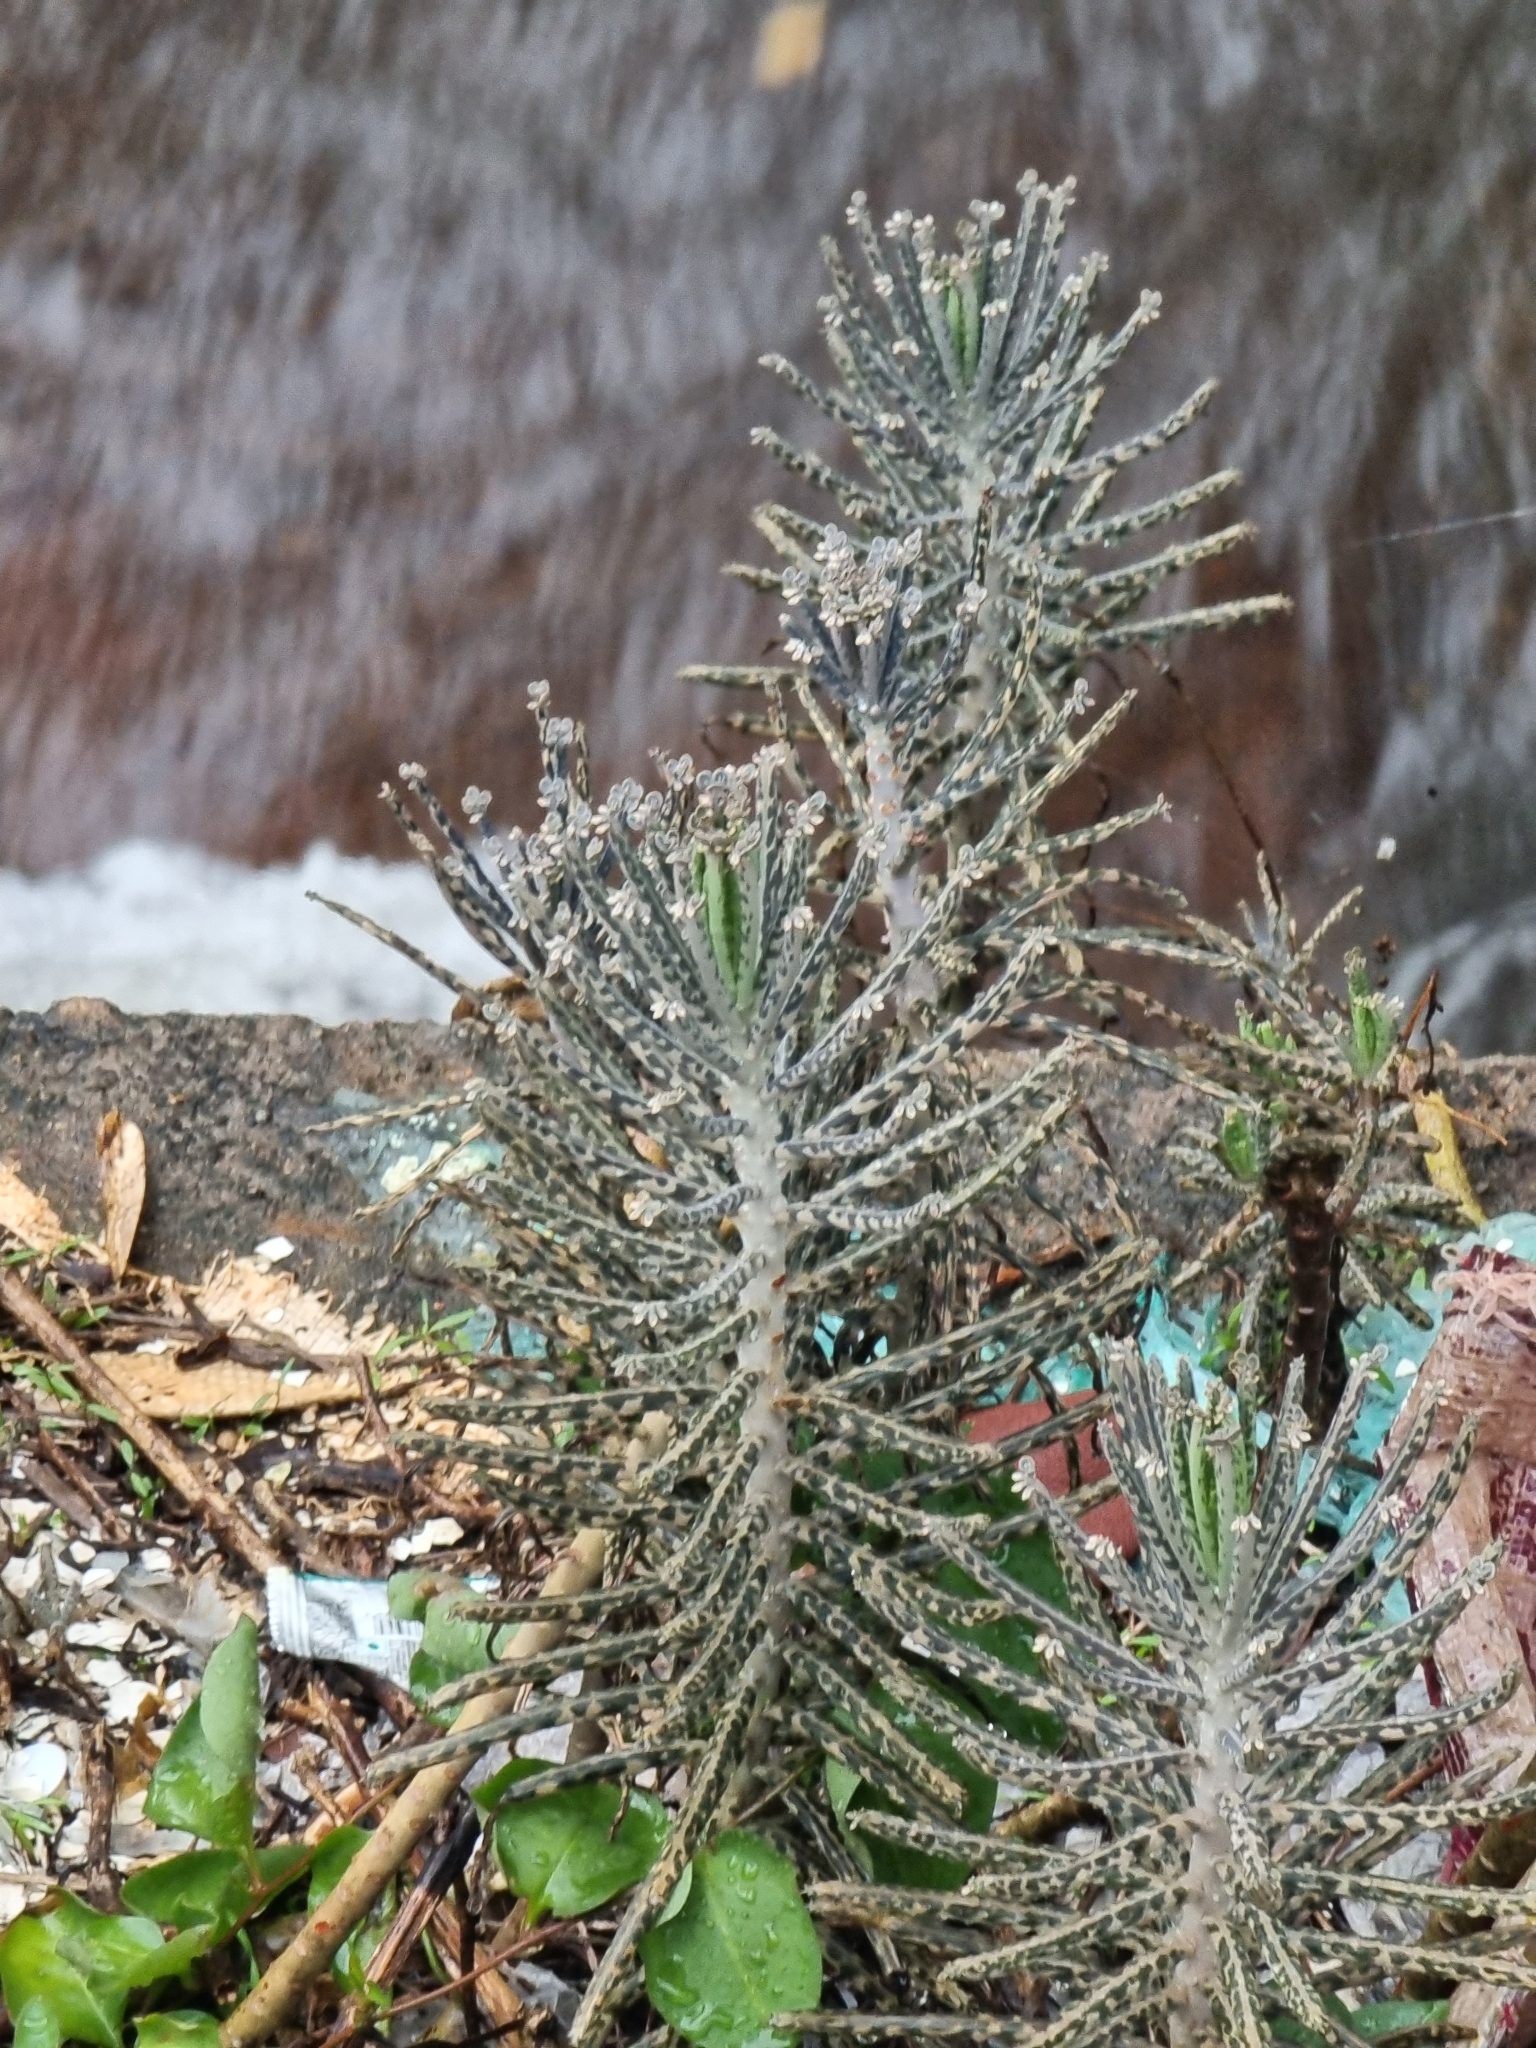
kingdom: Plantae
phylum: Tracheophyta
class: Magnoliopsida
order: Saxifragales
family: Crassulaceae
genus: Kalanchoe
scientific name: Kalanchoe delagoensis
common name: Chandelier plant
